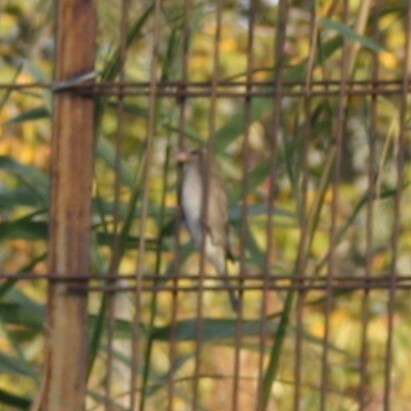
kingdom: Animalia
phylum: Chordata
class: Aves
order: Passeriformes
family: Passeridae
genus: Passer
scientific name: Passer domesticus
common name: House sparrow
